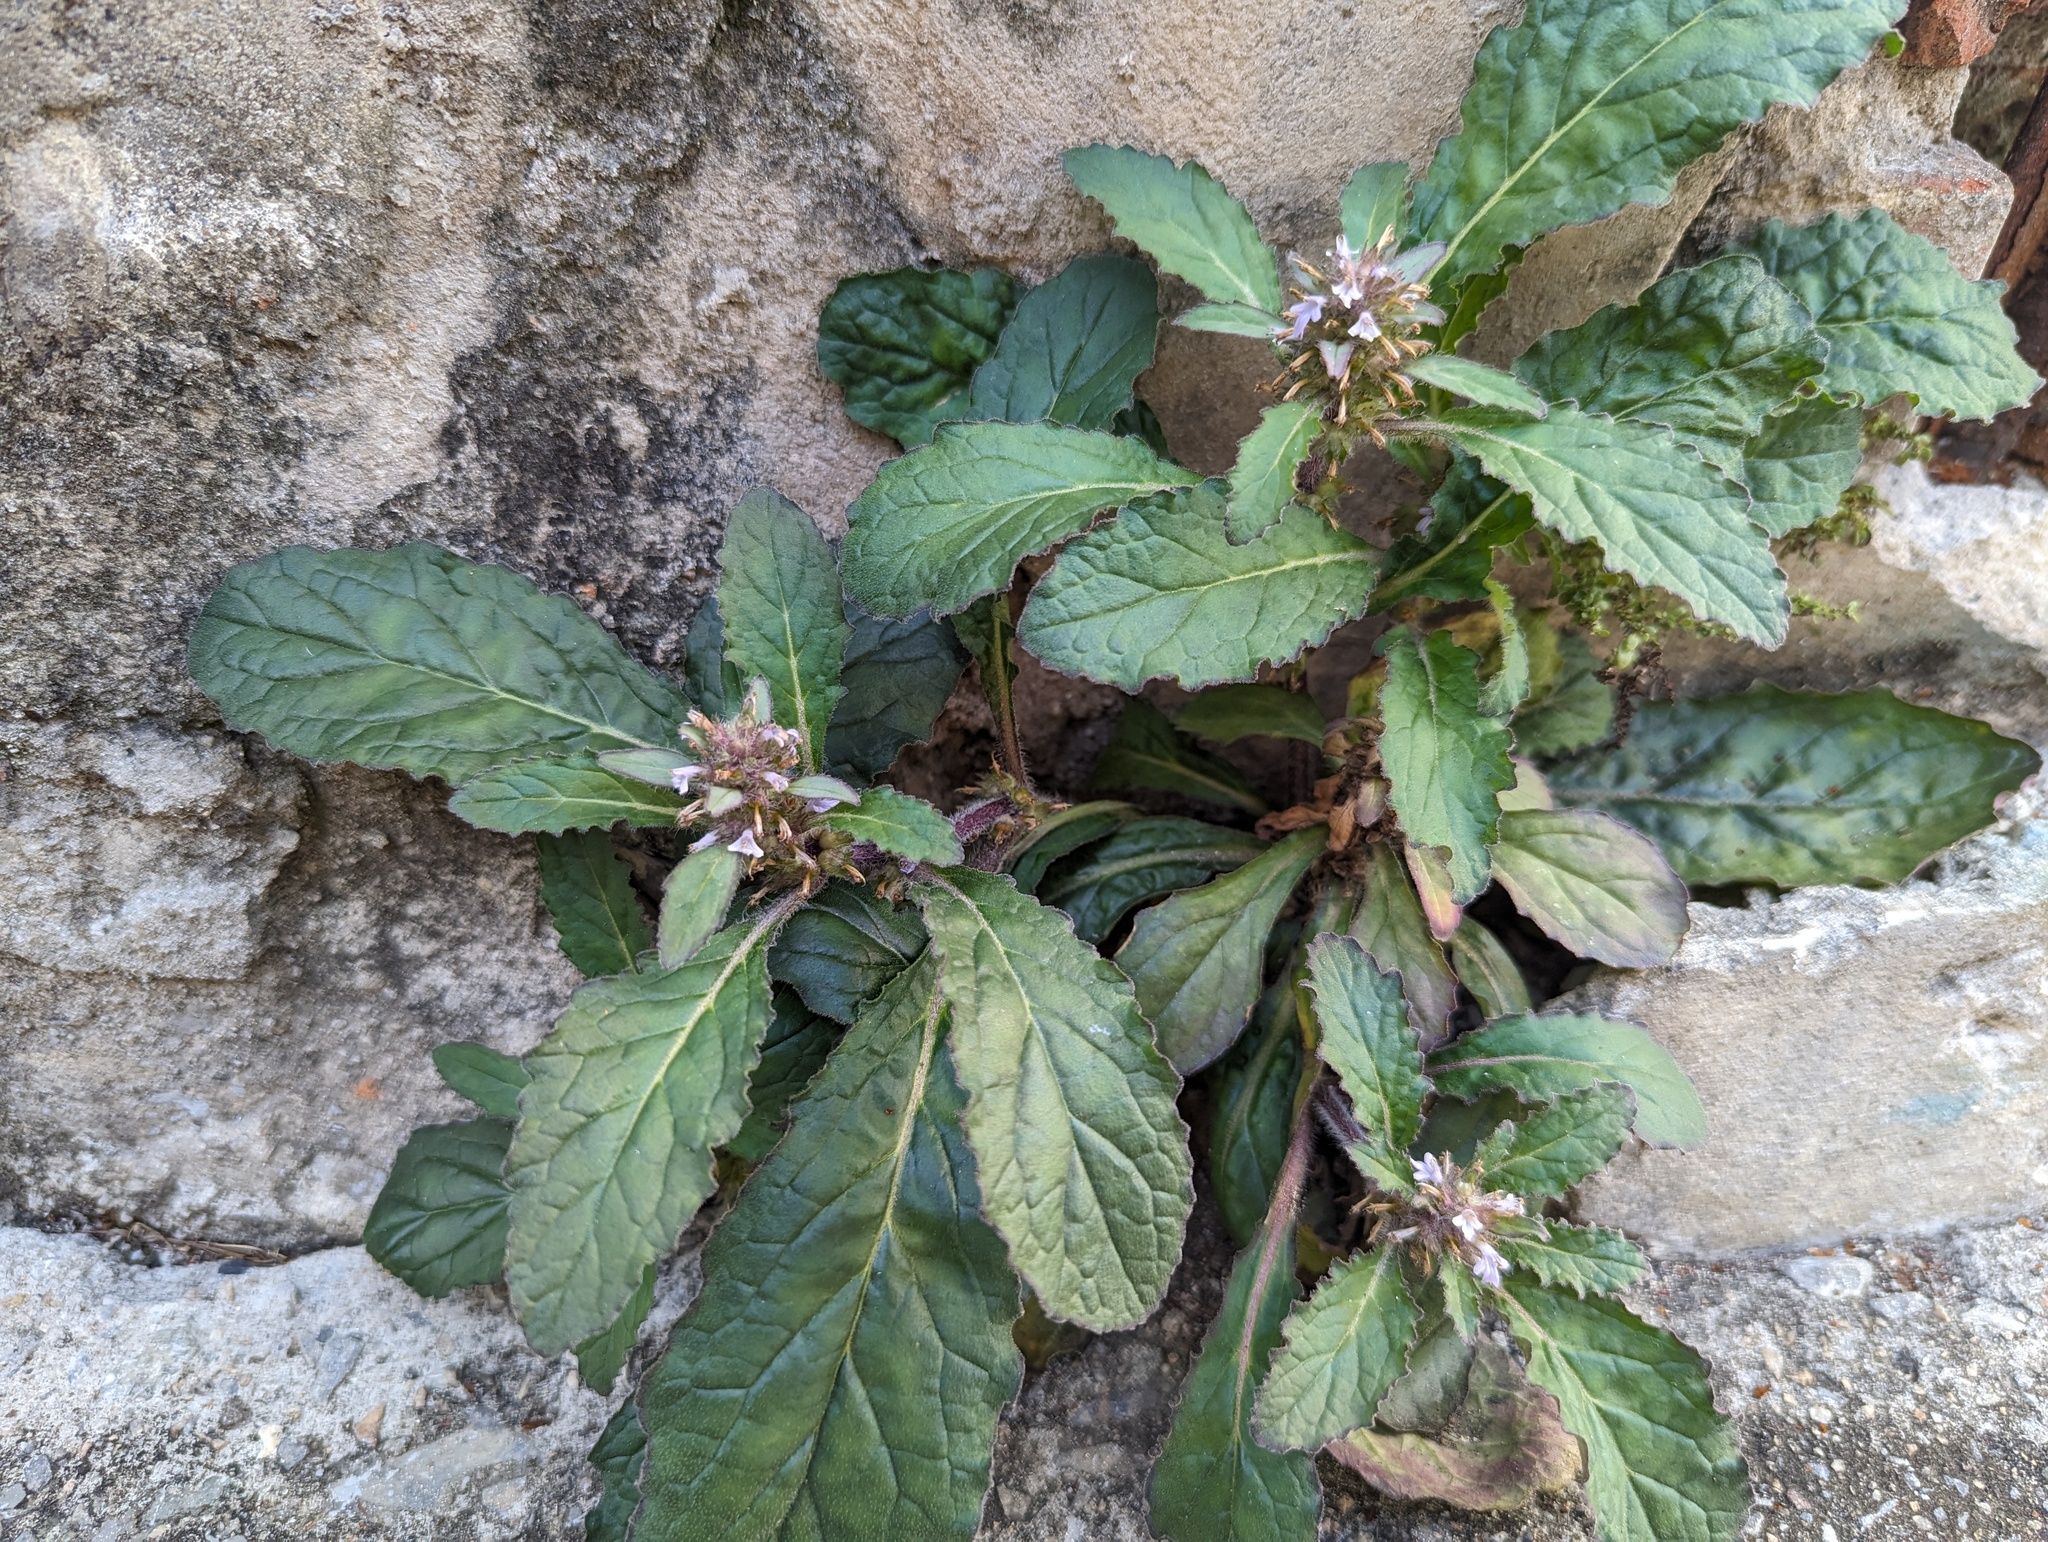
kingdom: Plantae
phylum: Tracheophyta
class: Magnoliopsida
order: Lamiales
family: Lamiaceae
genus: Ajuga
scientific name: Ajuga taiwanensis
